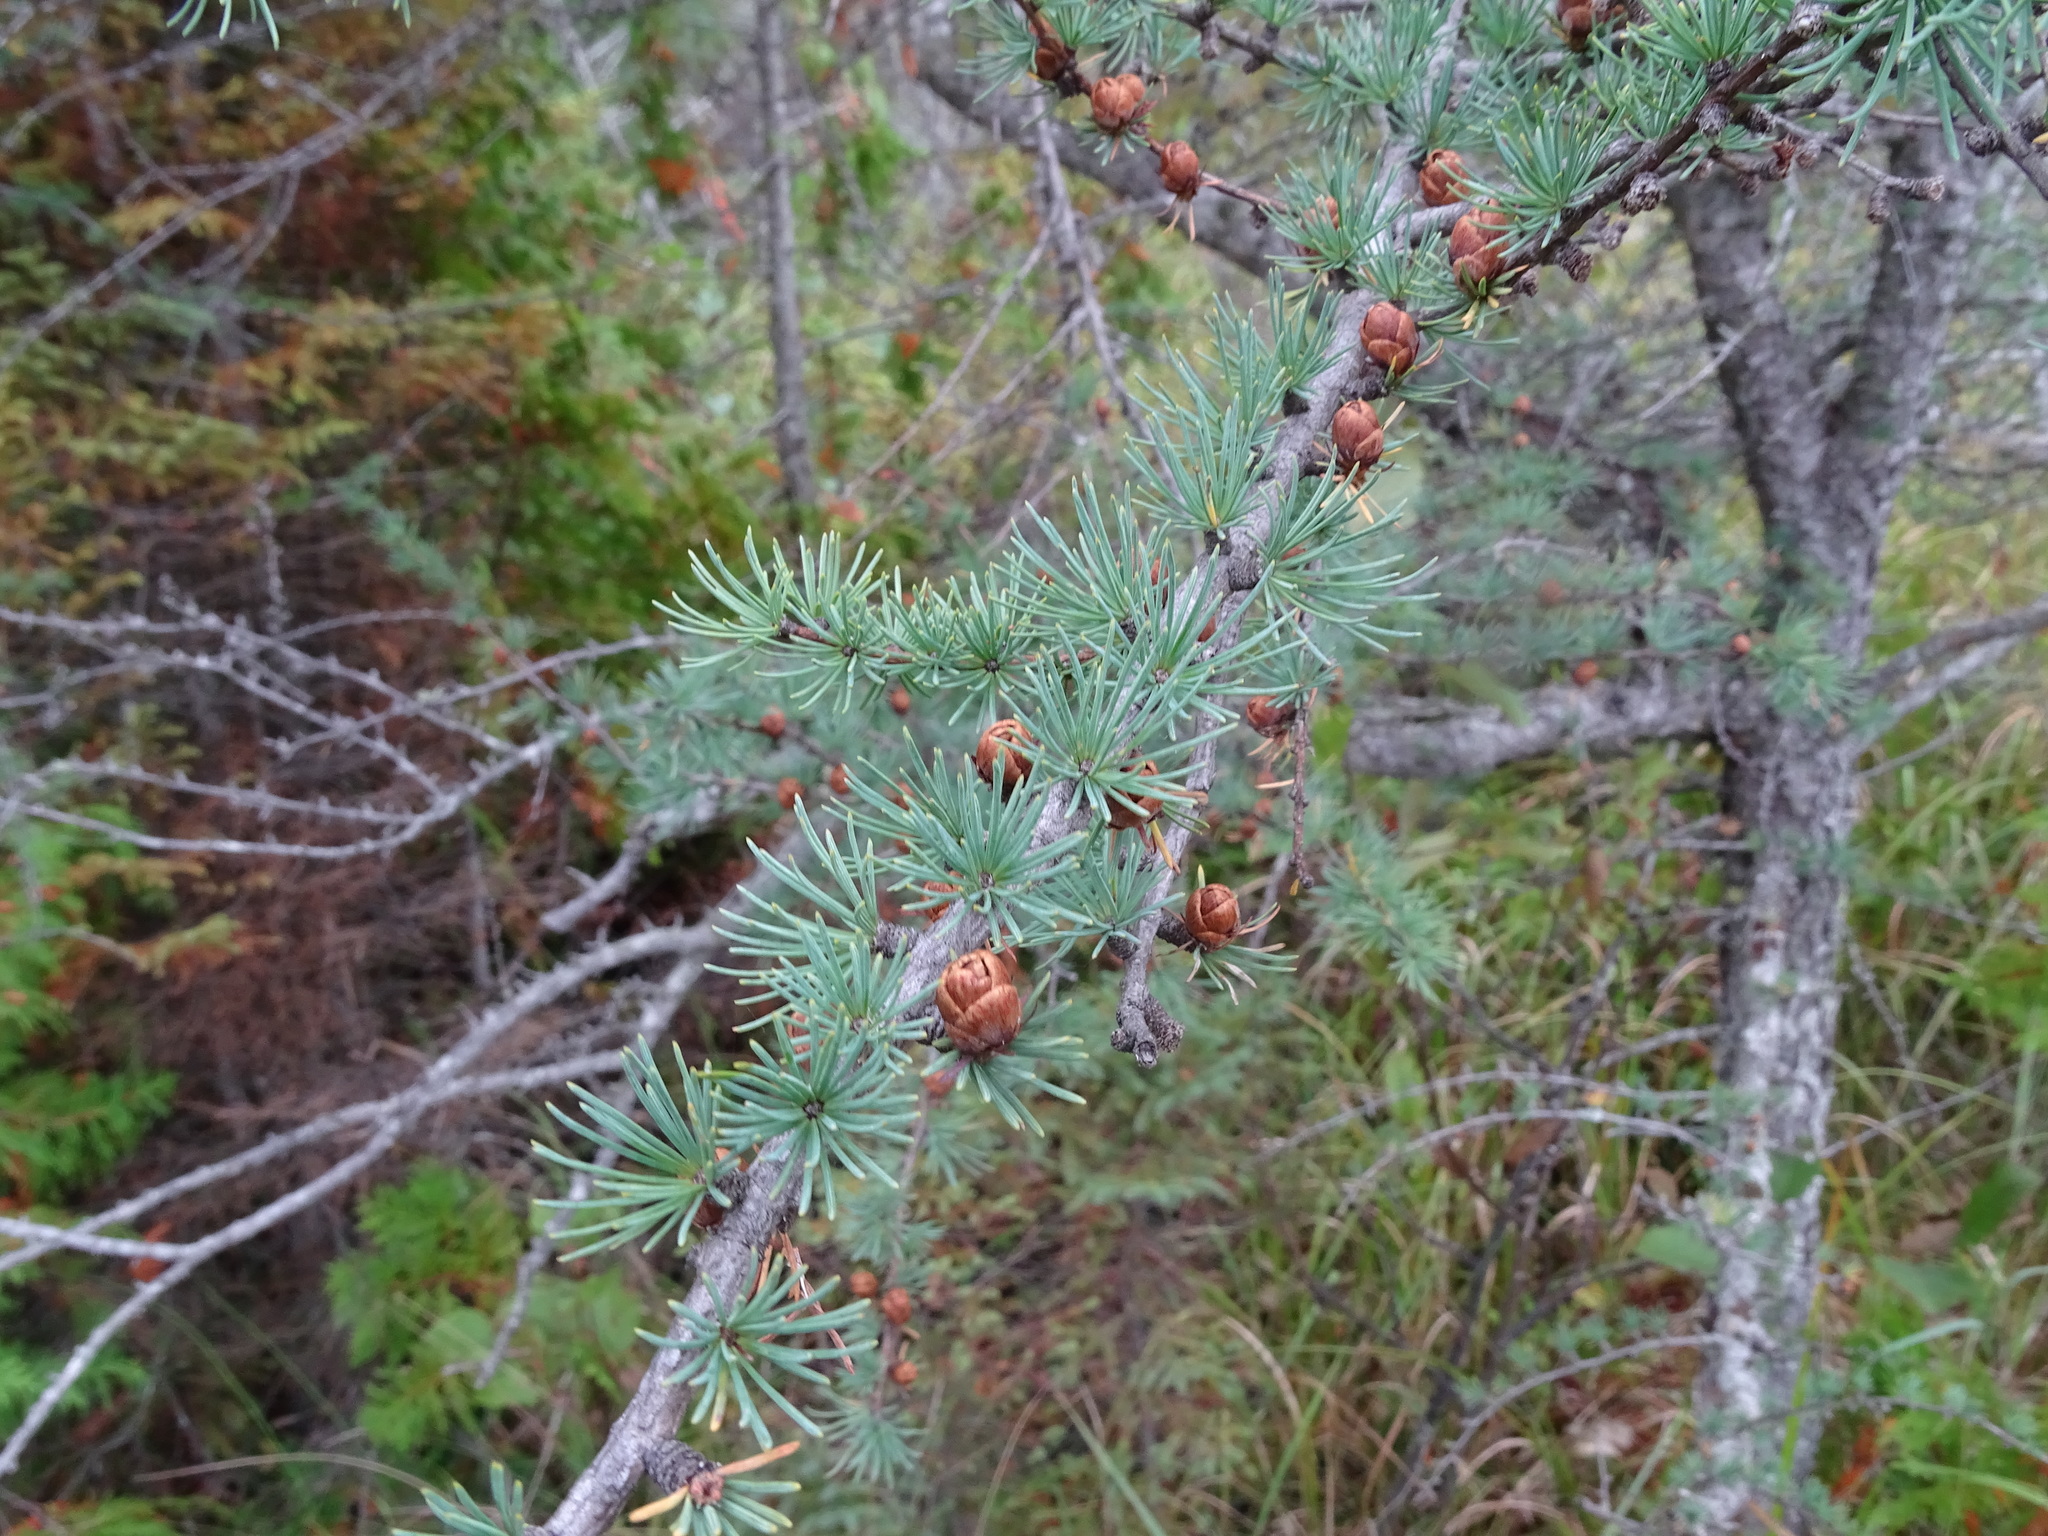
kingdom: Plantae
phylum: Tracheophyta
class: Pinopsida
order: Pinales
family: Pinaceae
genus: Larix
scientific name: Larix laricina
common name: American larch
